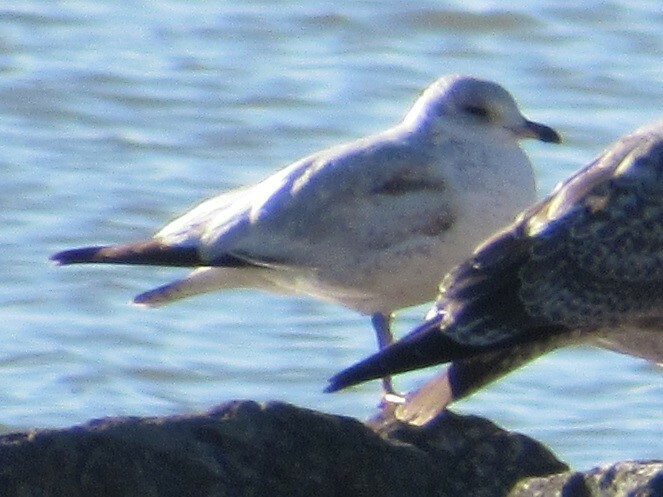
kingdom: Animalia
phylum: Chordata
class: Aves
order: Charadriiformes
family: Laridae
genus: Larus
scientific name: Larus delawarensis
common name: Ring-billed gull
